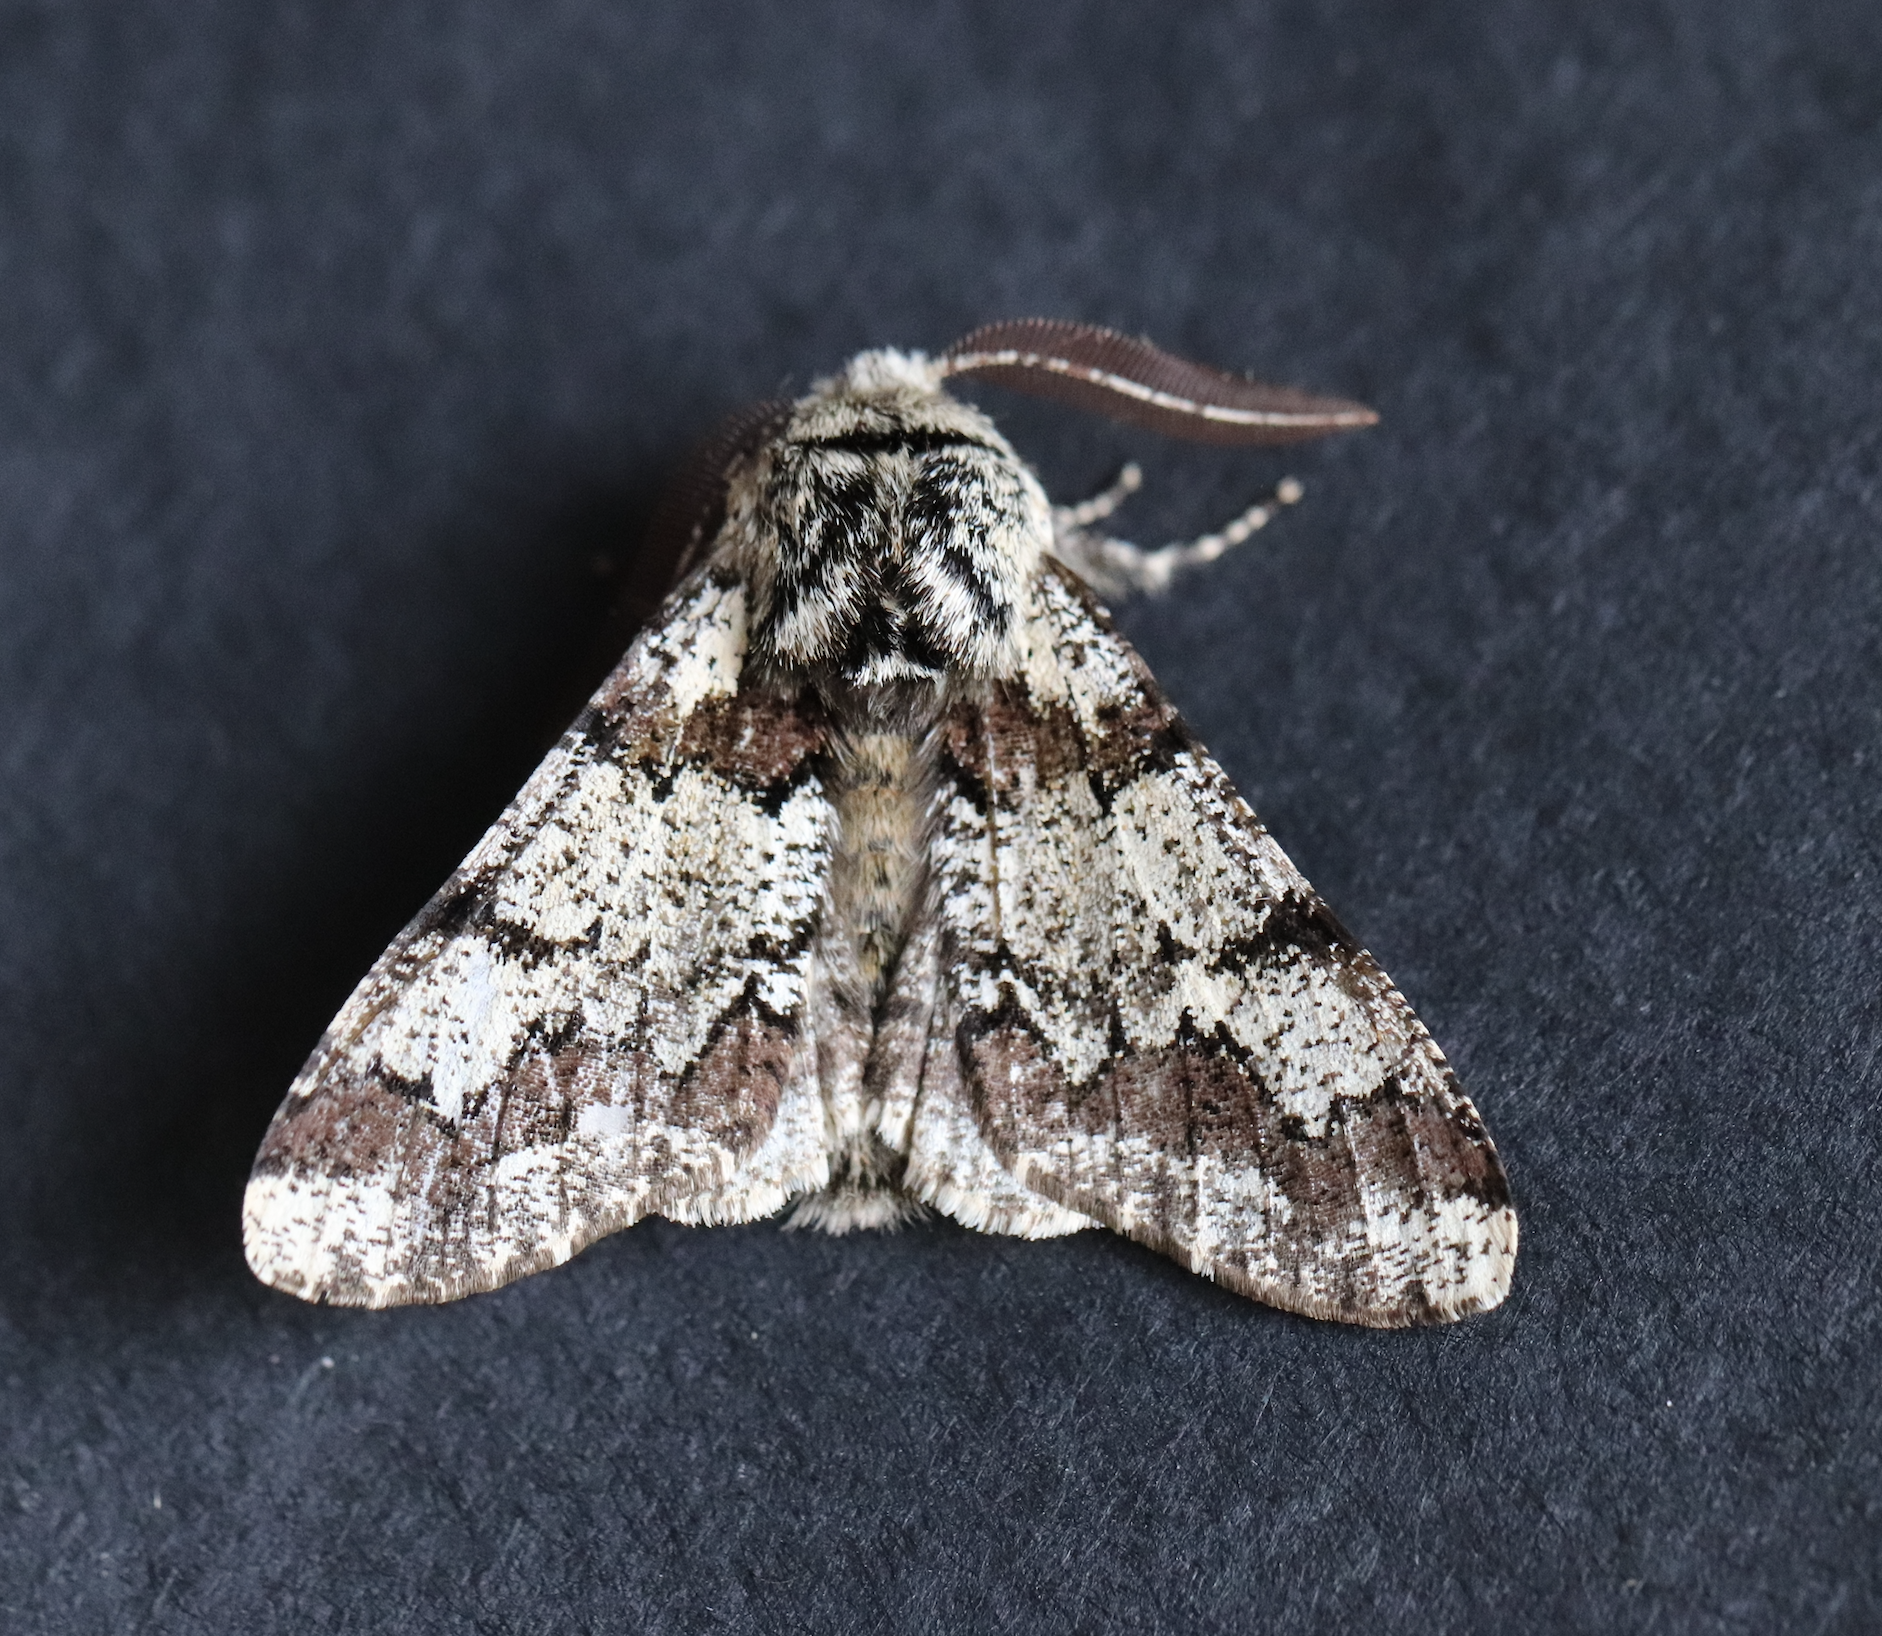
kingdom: Animalia
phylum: Arthropoda
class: Insecta
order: Lepidoptera
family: Geometridae
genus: Biston
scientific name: Biston strataria
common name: Oak beauty
